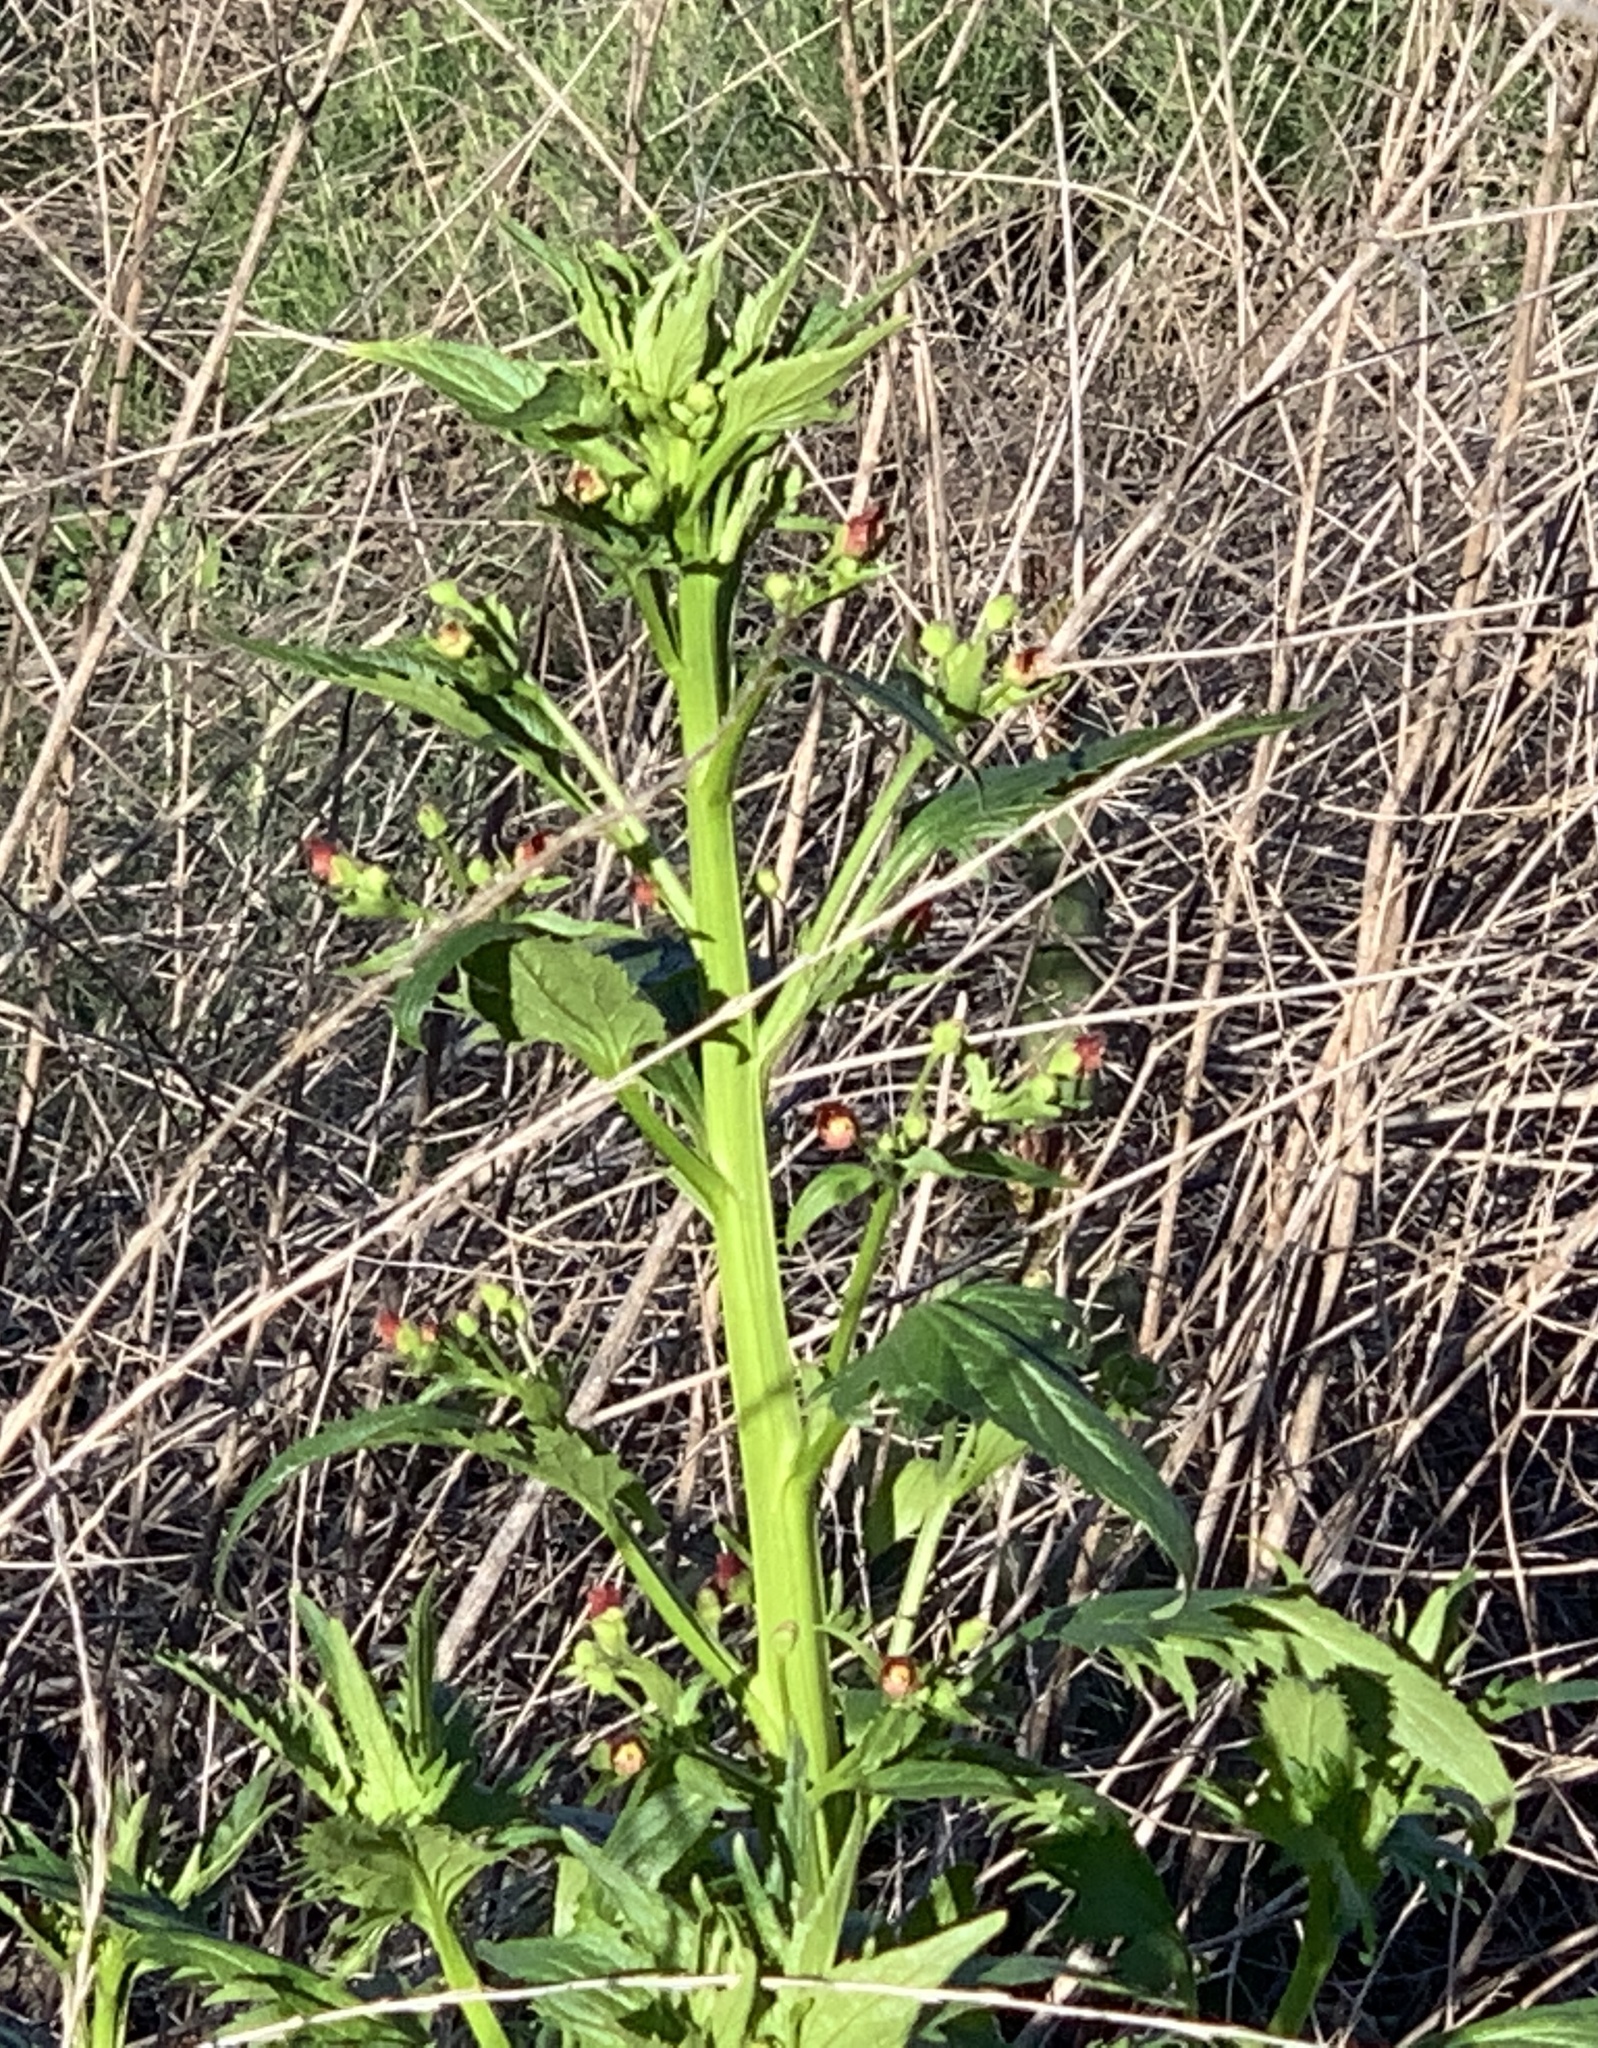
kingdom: Plantae
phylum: Tracheophyta
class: Magnoliopsida
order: Lamiales
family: Scrophulariaceae
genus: Scrophularia
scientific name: Scrophularia californica
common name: California figwort
